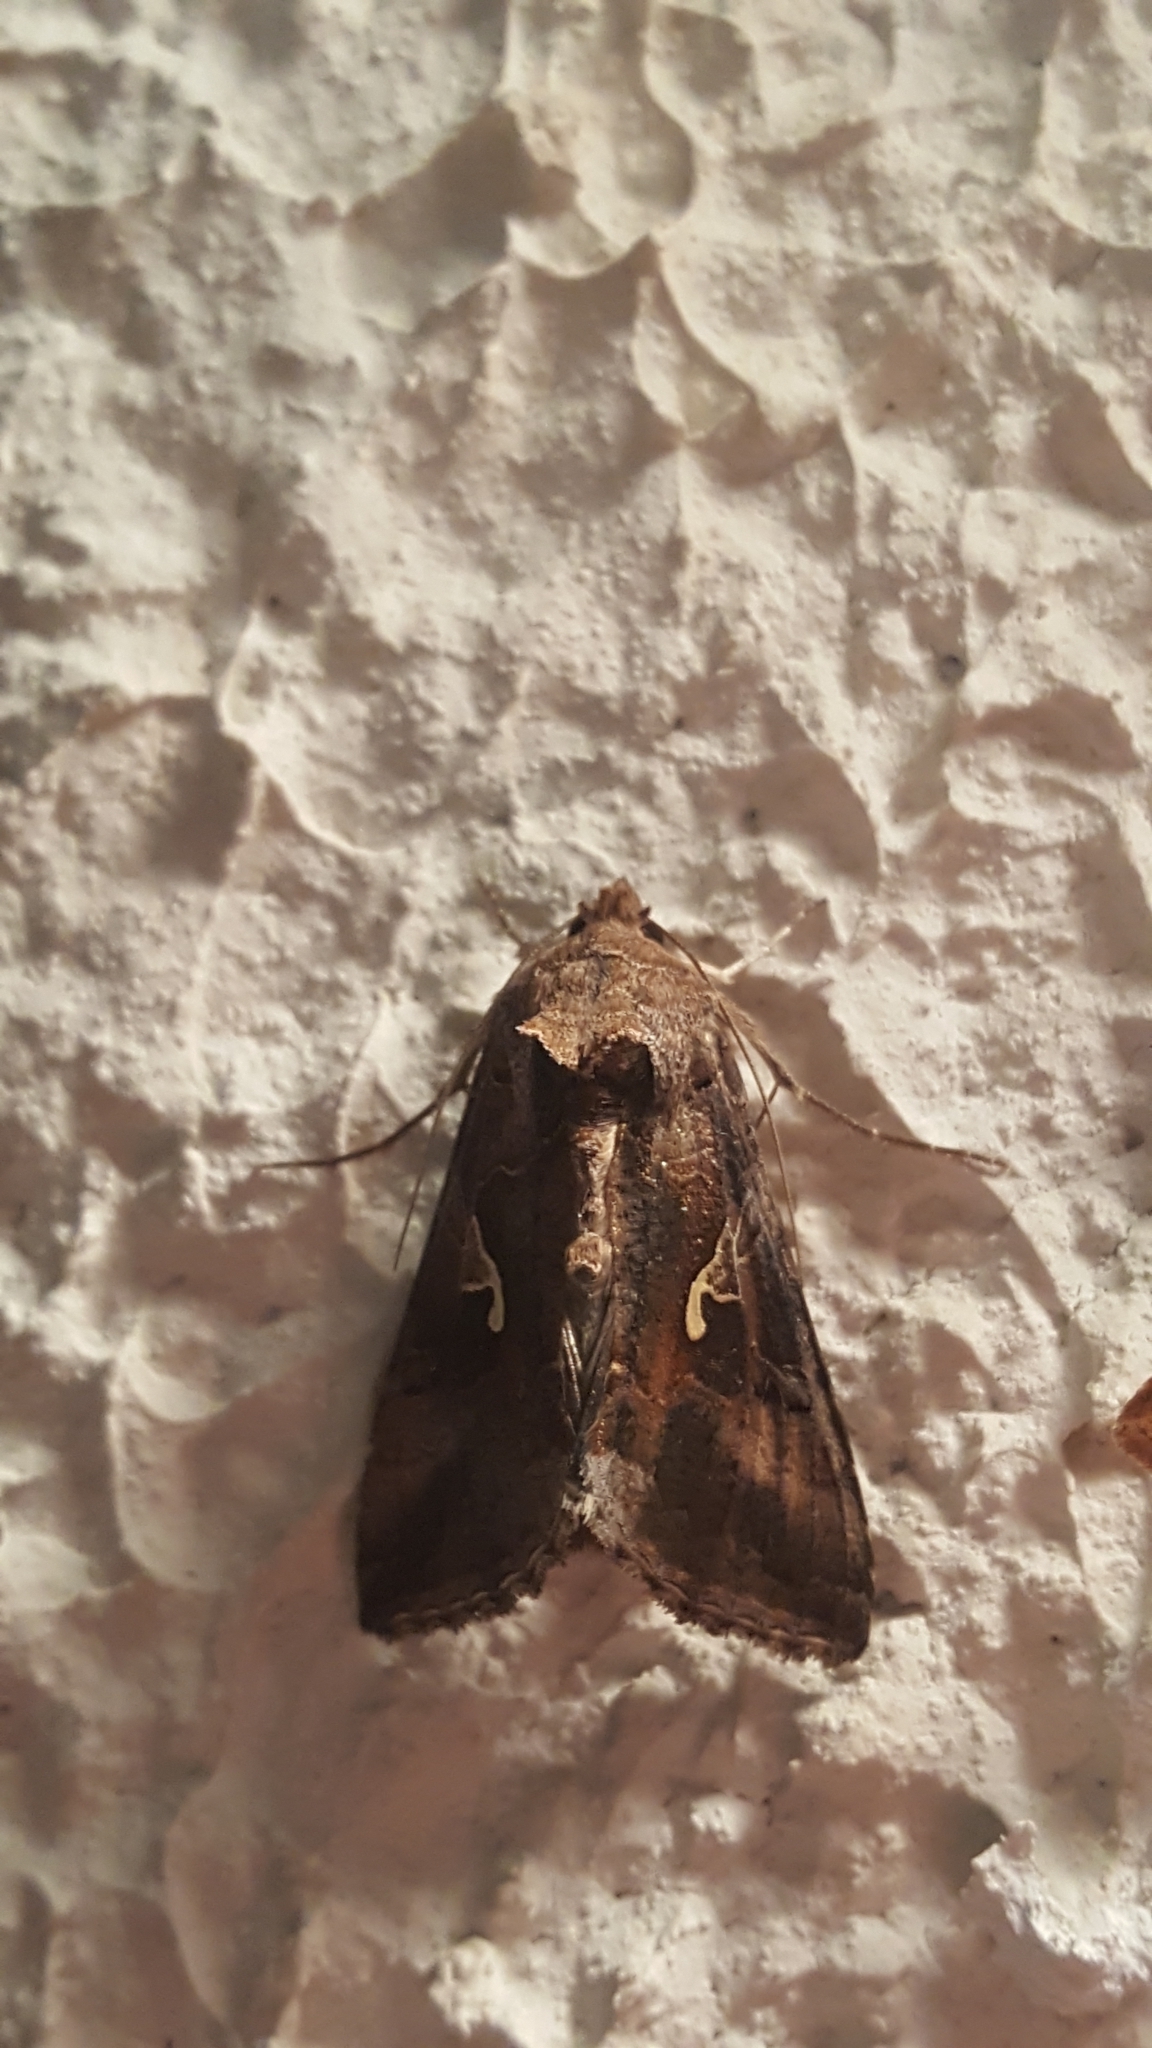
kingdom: Animalia
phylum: Arthropoda
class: Insecta
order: Lepidoptera
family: Noctuidae
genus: Autographa
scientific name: Autographa gamma
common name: Silver y
